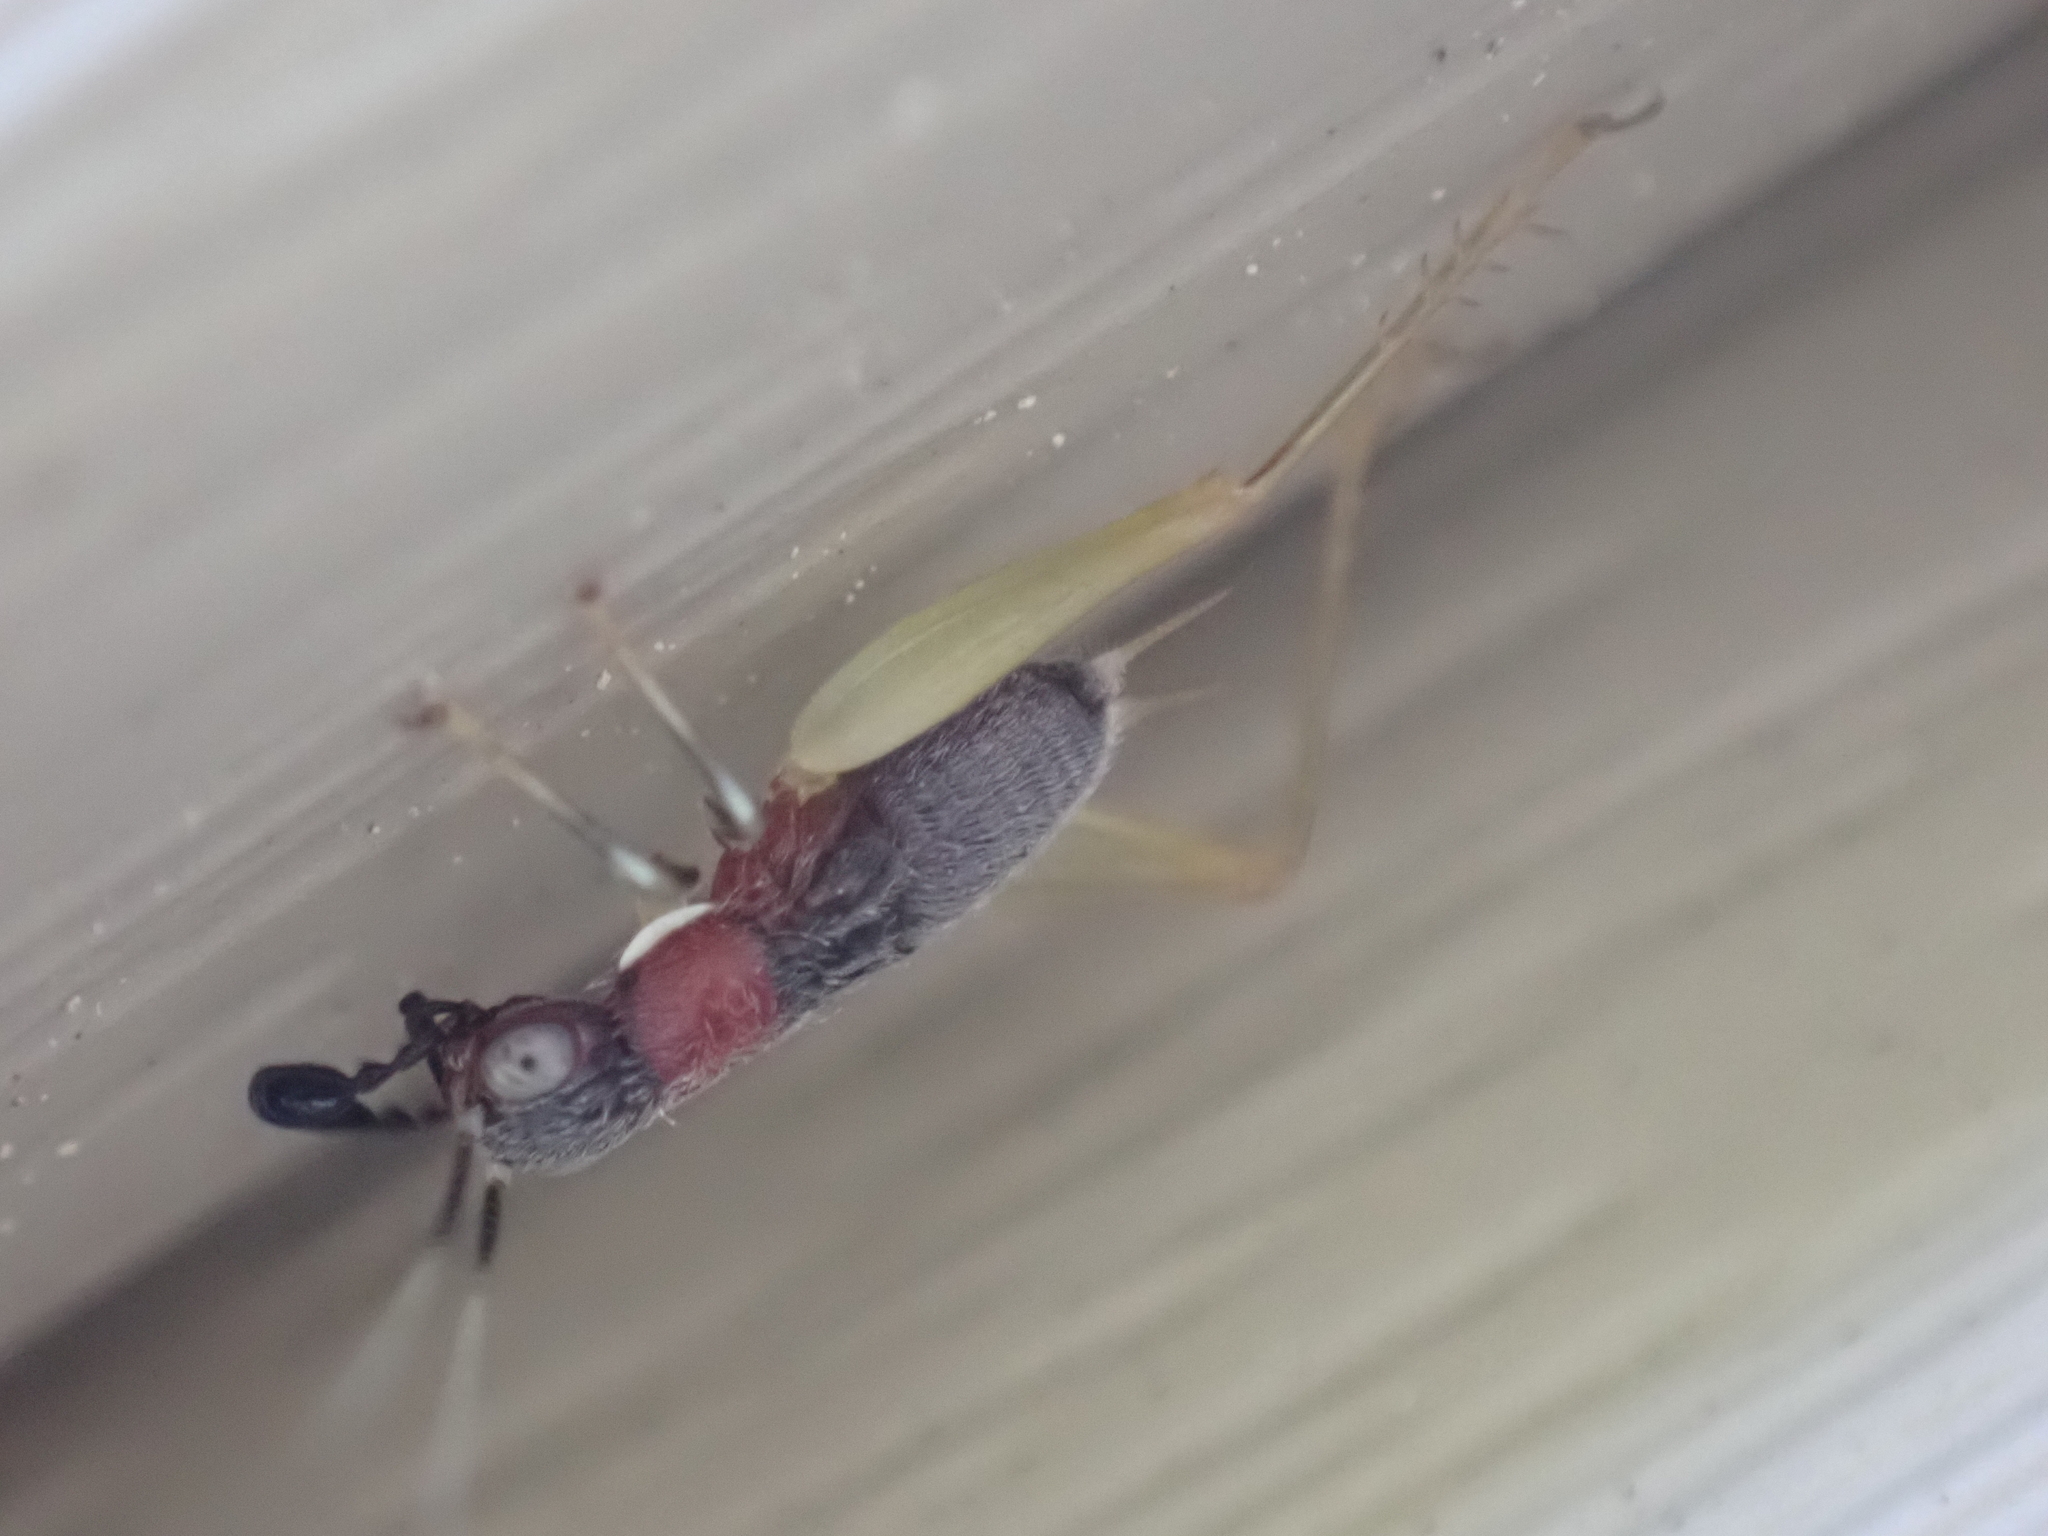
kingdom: Animalia
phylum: Arthropoda
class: Insecta
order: Orthoptera
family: Trigonidiidae
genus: Phyllopalpus
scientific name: Phyllopalpus pulchellus
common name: Handsome trig
